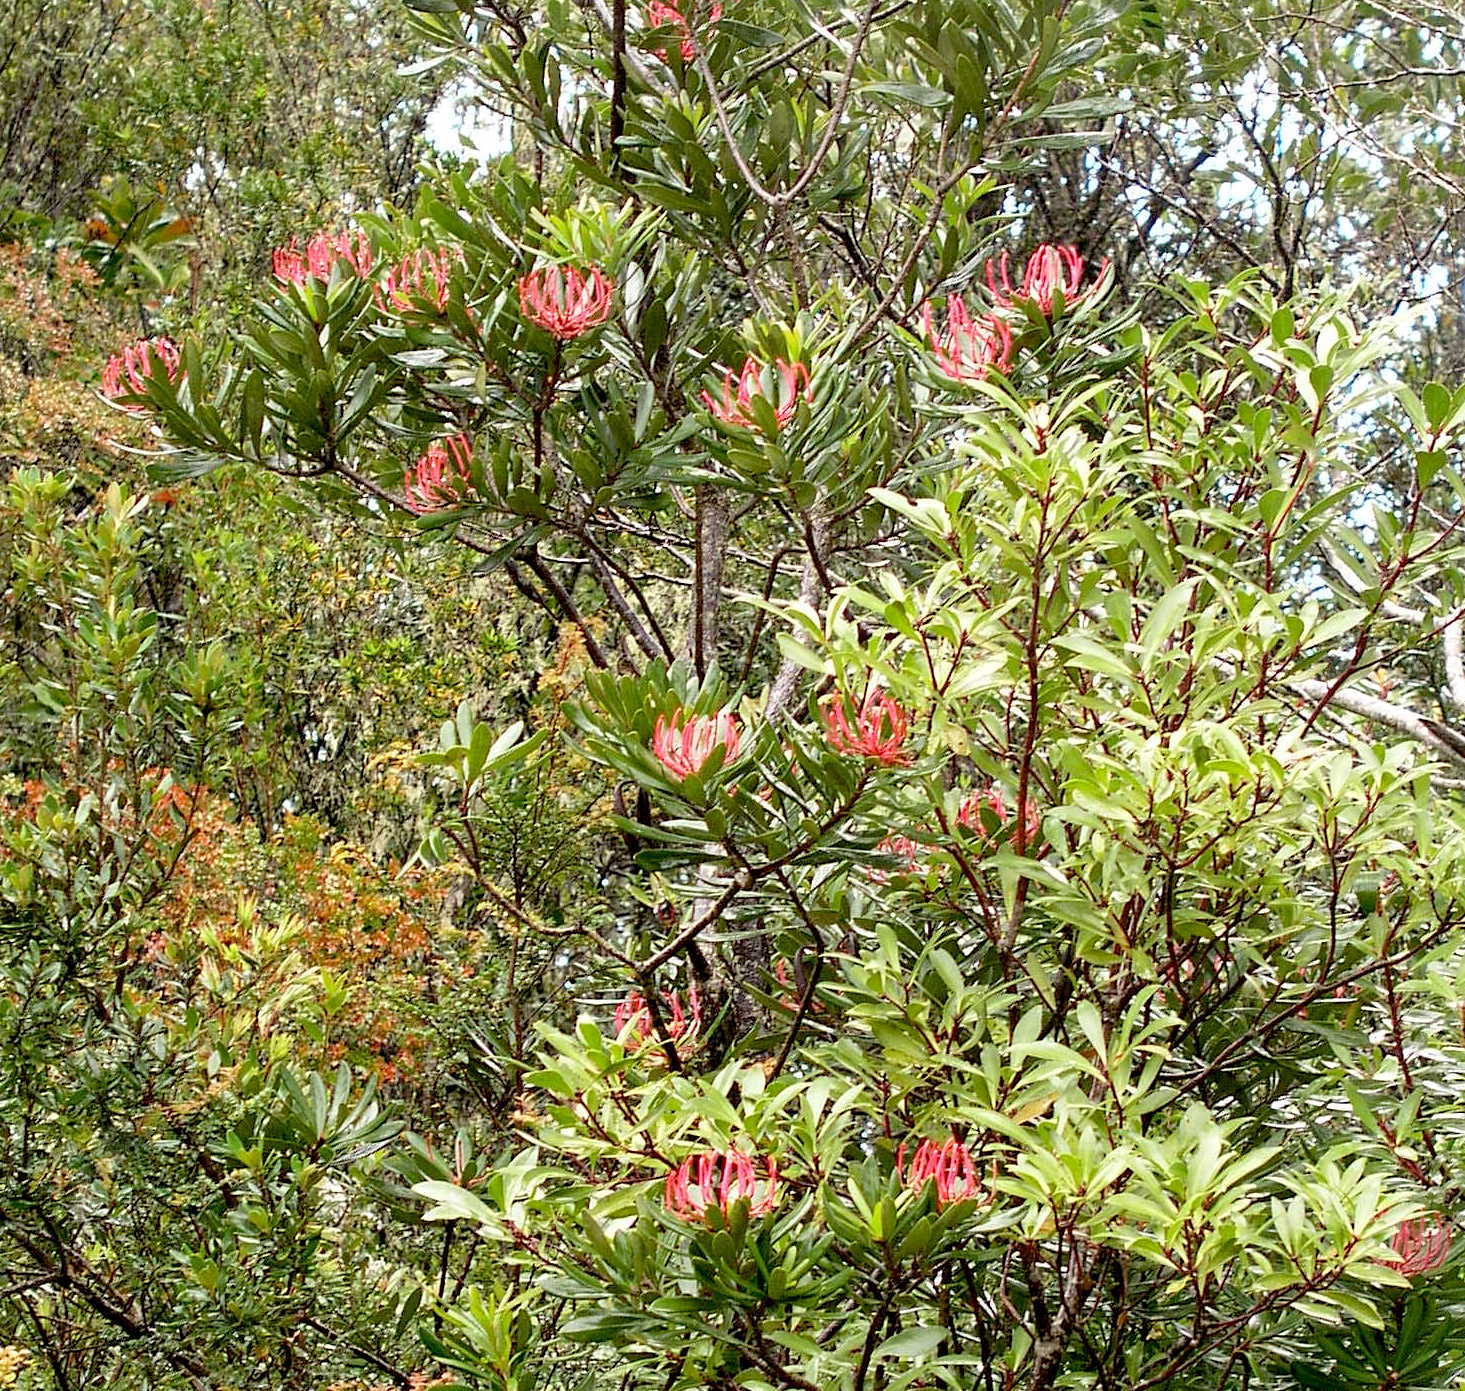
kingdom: Plantae
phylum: Tracheophyta
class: Magnoliopsida
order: Proteales
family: Proteaceae
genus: Telopea
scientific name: Telopea truncata
